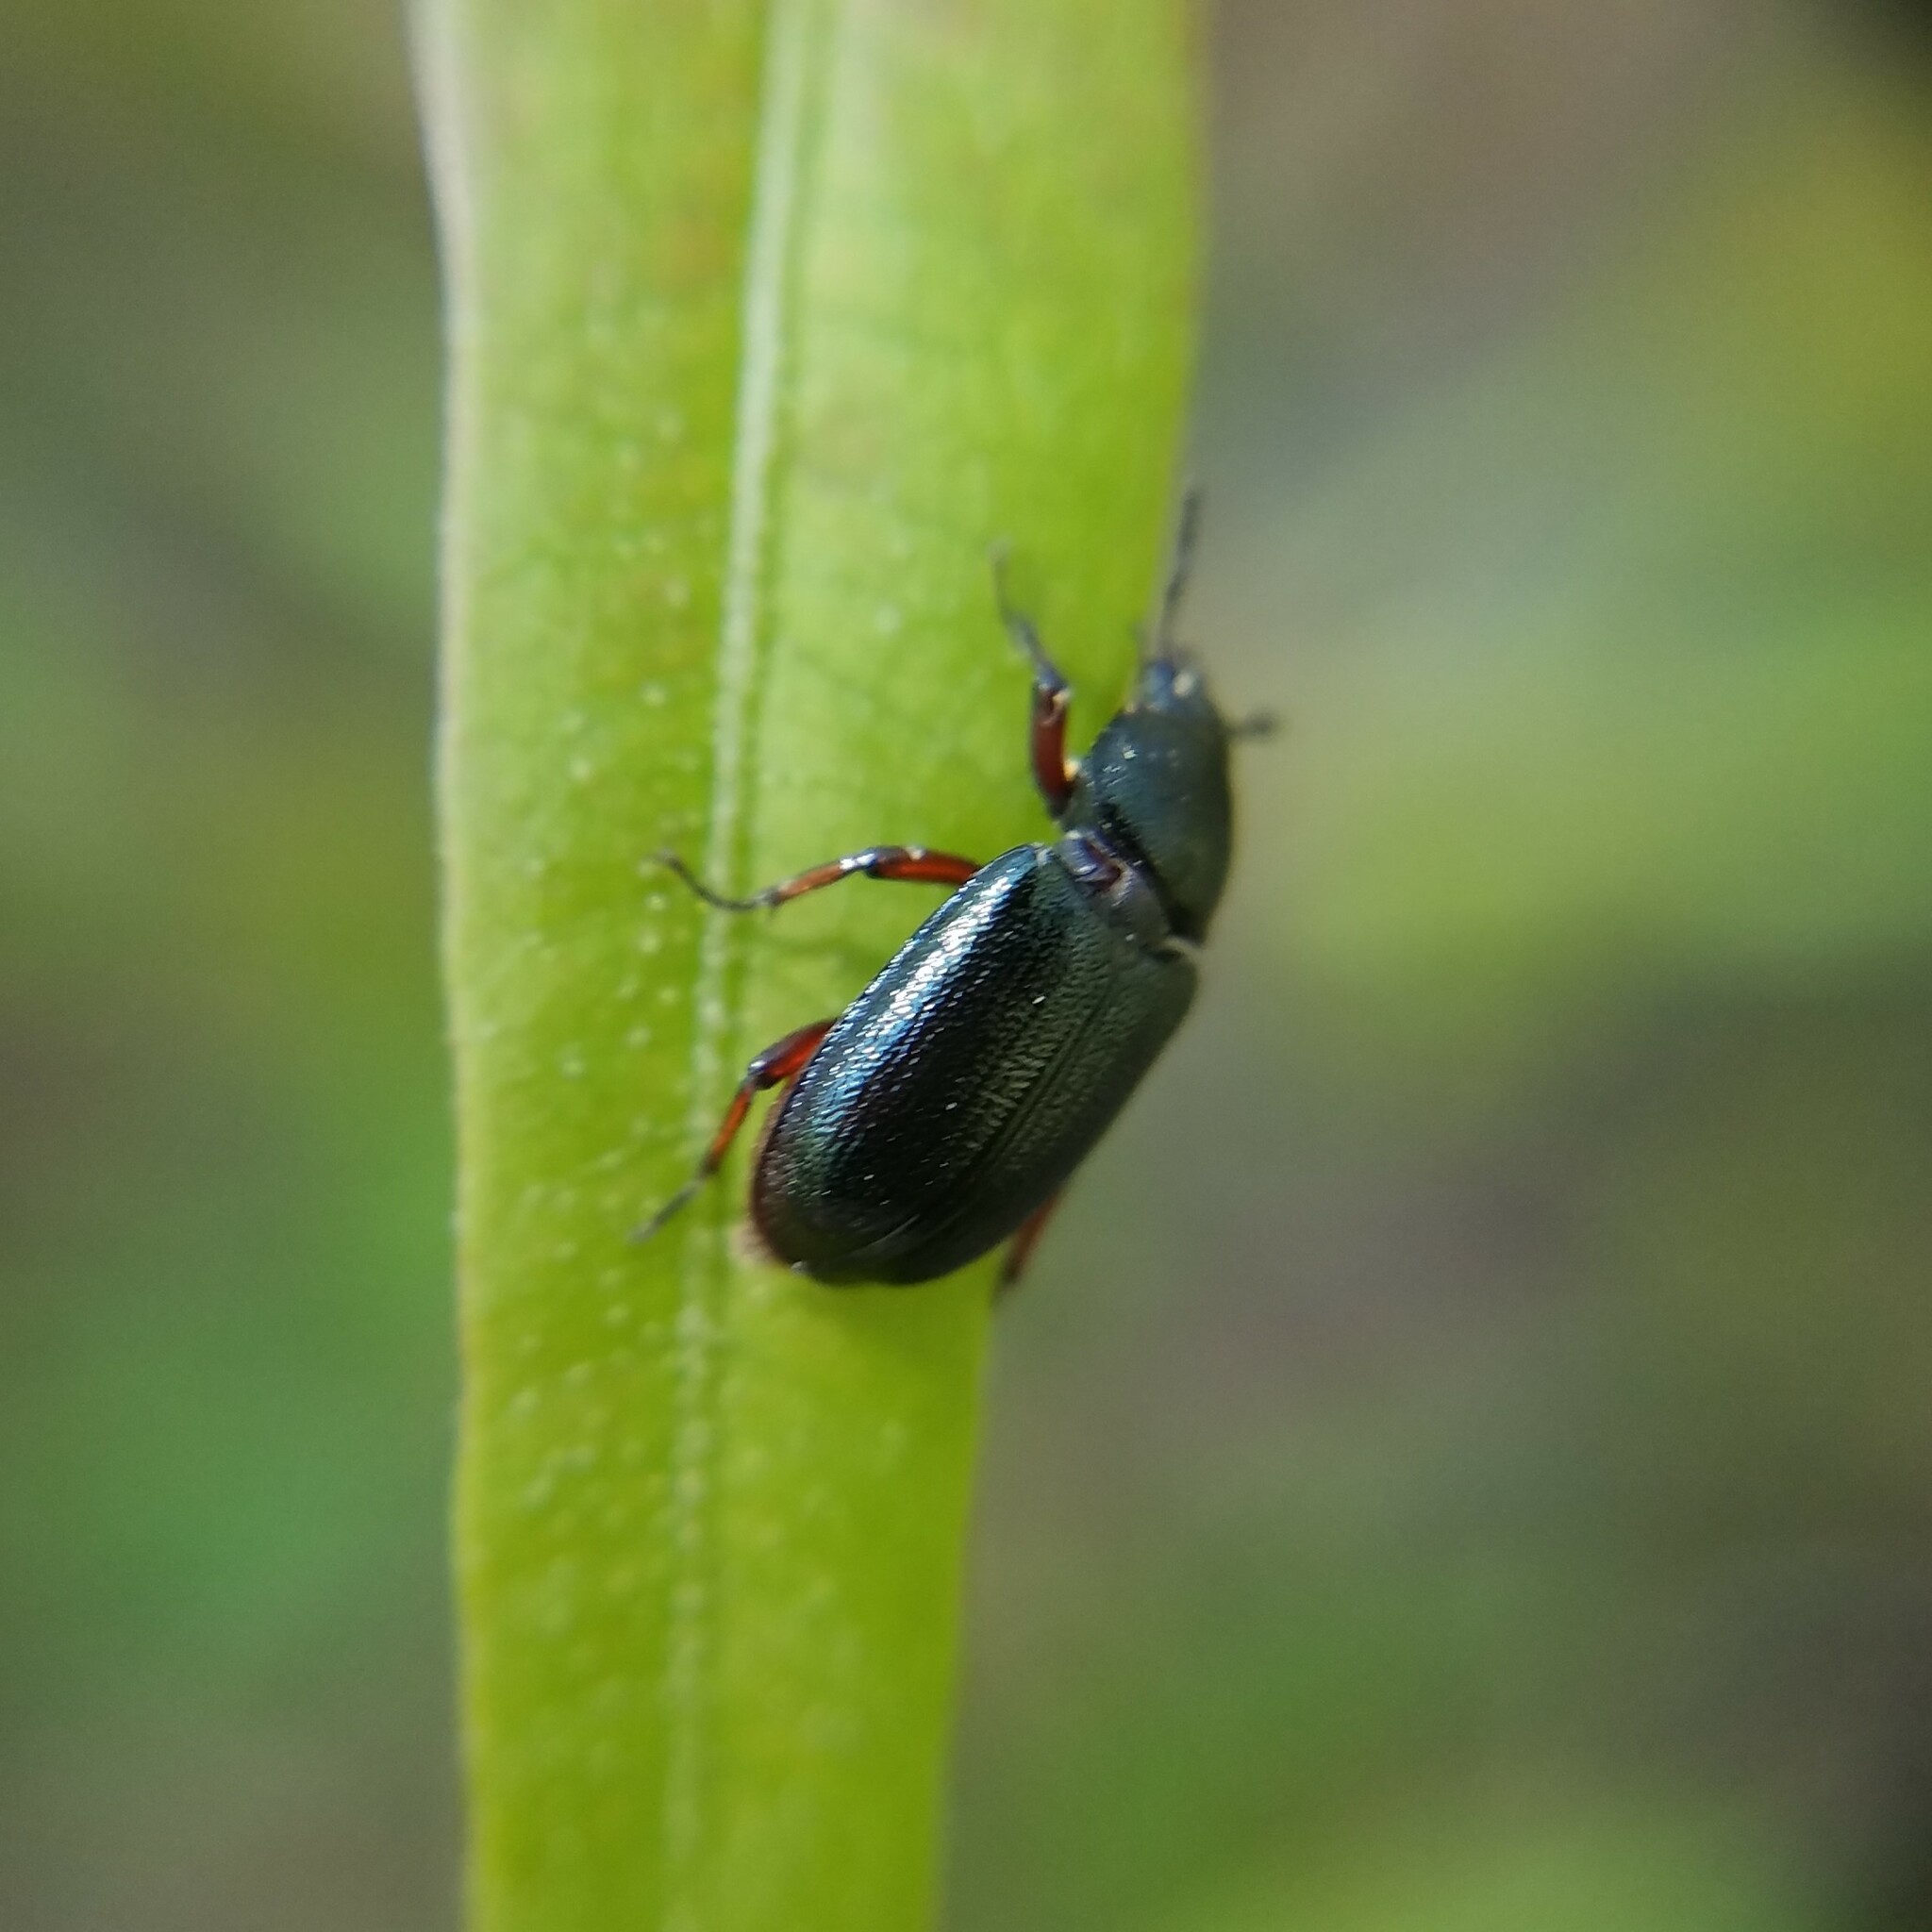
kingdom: Animalia
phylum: Arthropoda
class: Insecta
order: Coleoptera
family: Lucanidae
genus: Platycerus
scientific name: Platycerus quercus
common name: Oak stag beetle
